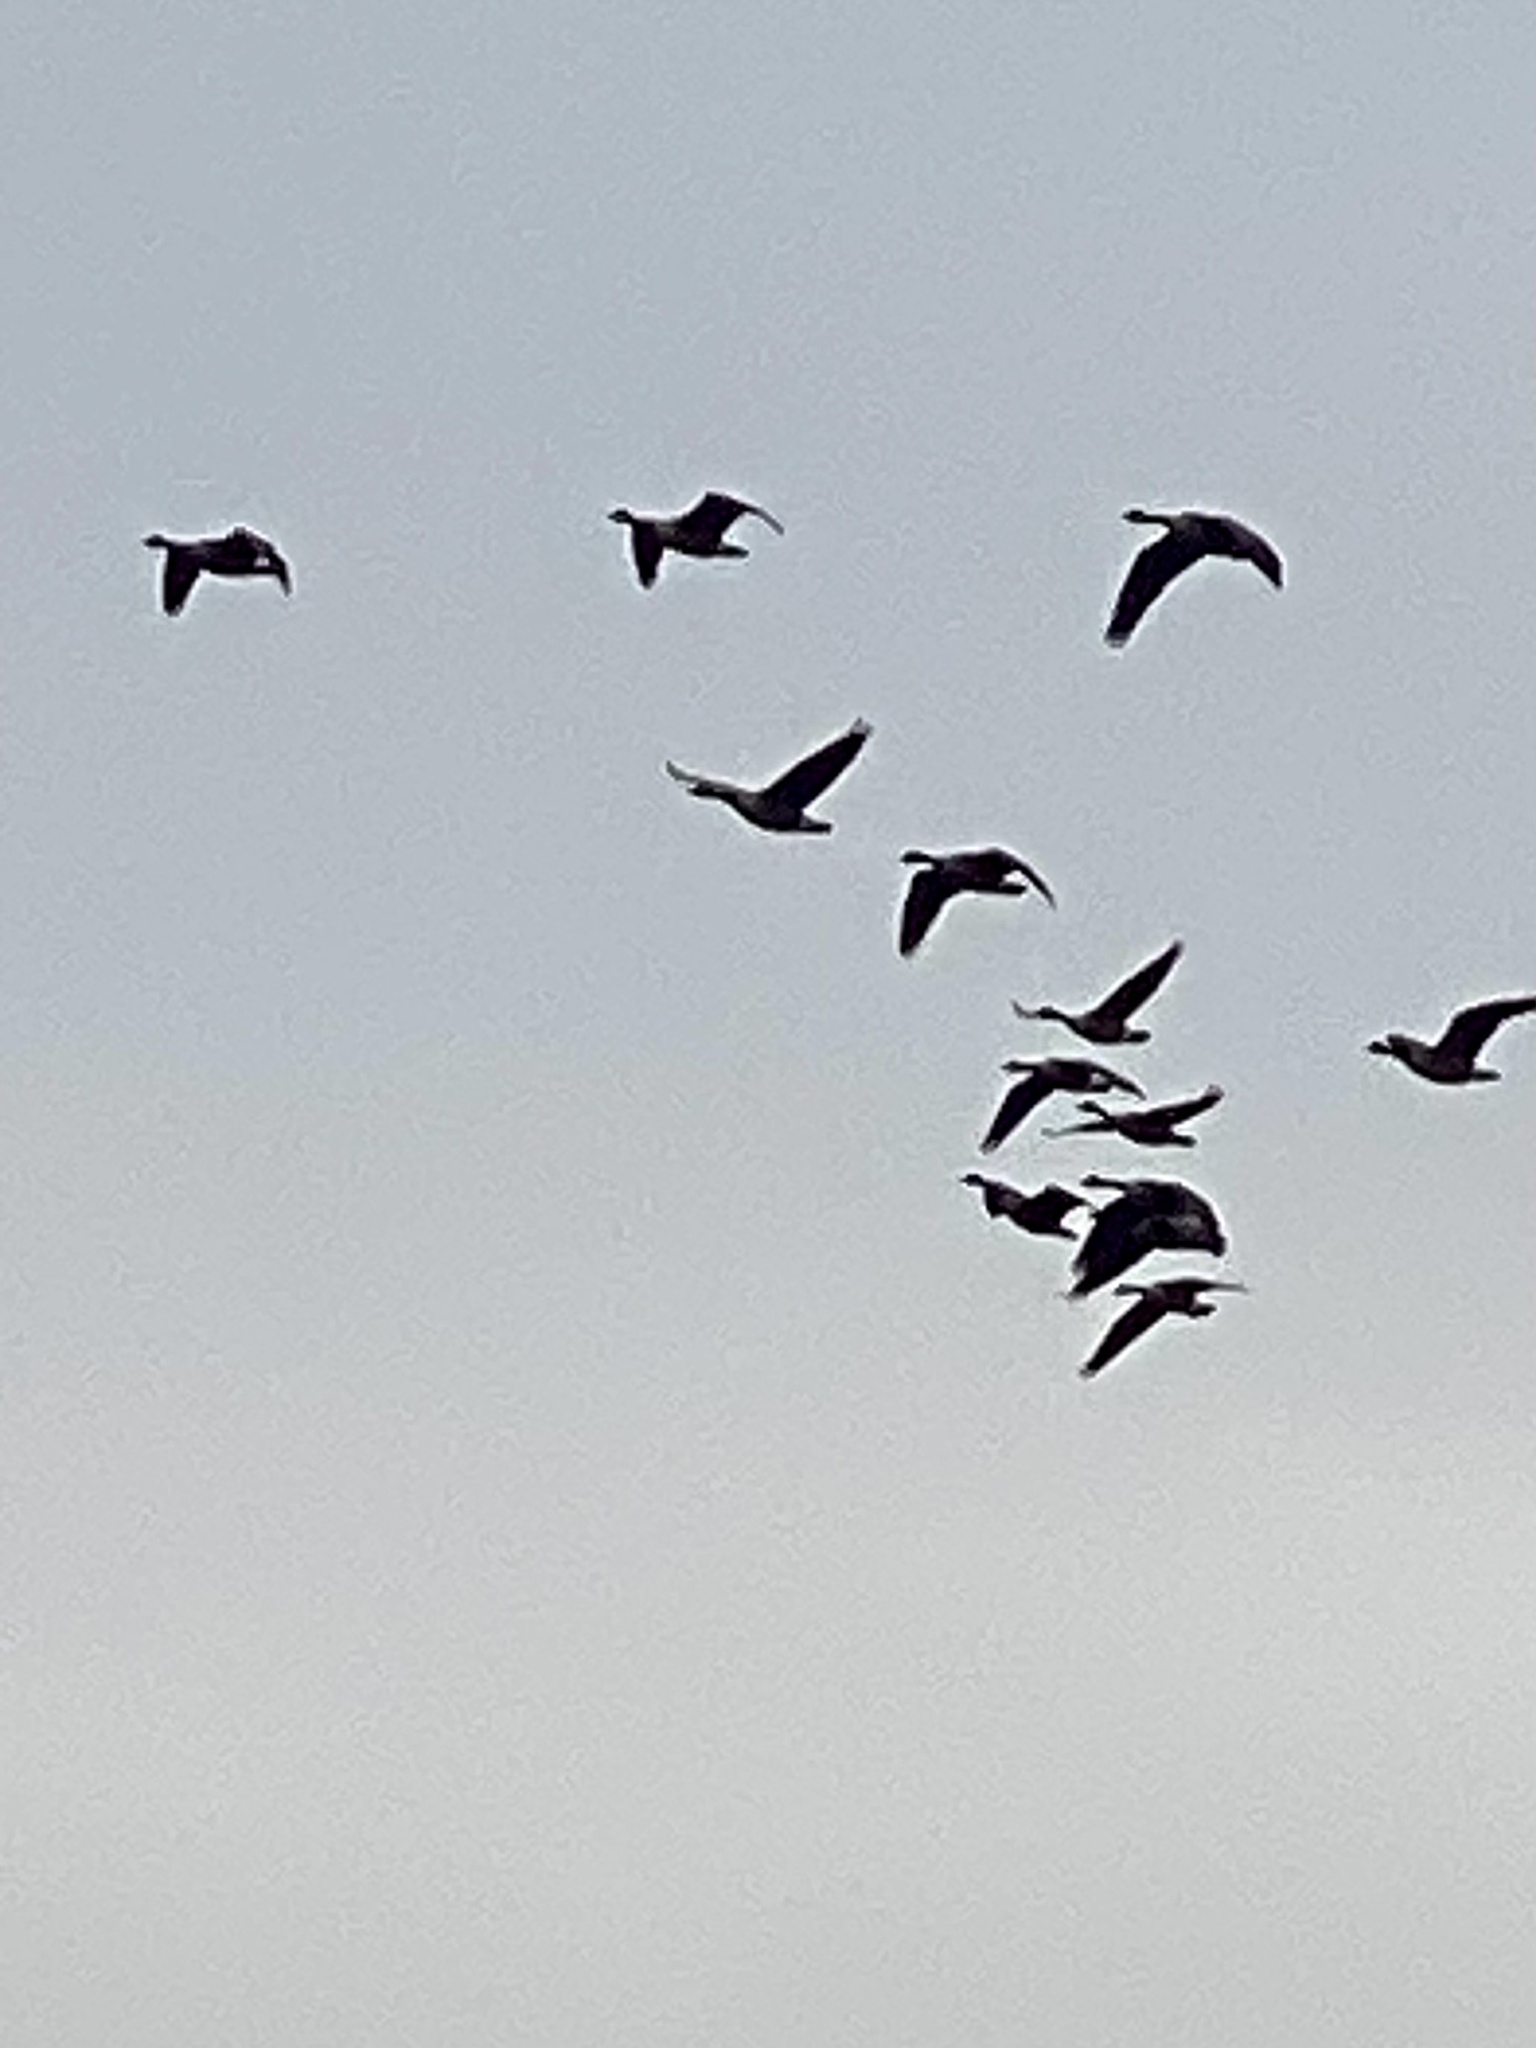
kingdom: Animalia
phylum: Chordata
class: Aves
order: Anseriformes
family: Anatidae
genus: Branta
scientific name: Branta canadensis
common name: Canada goose
